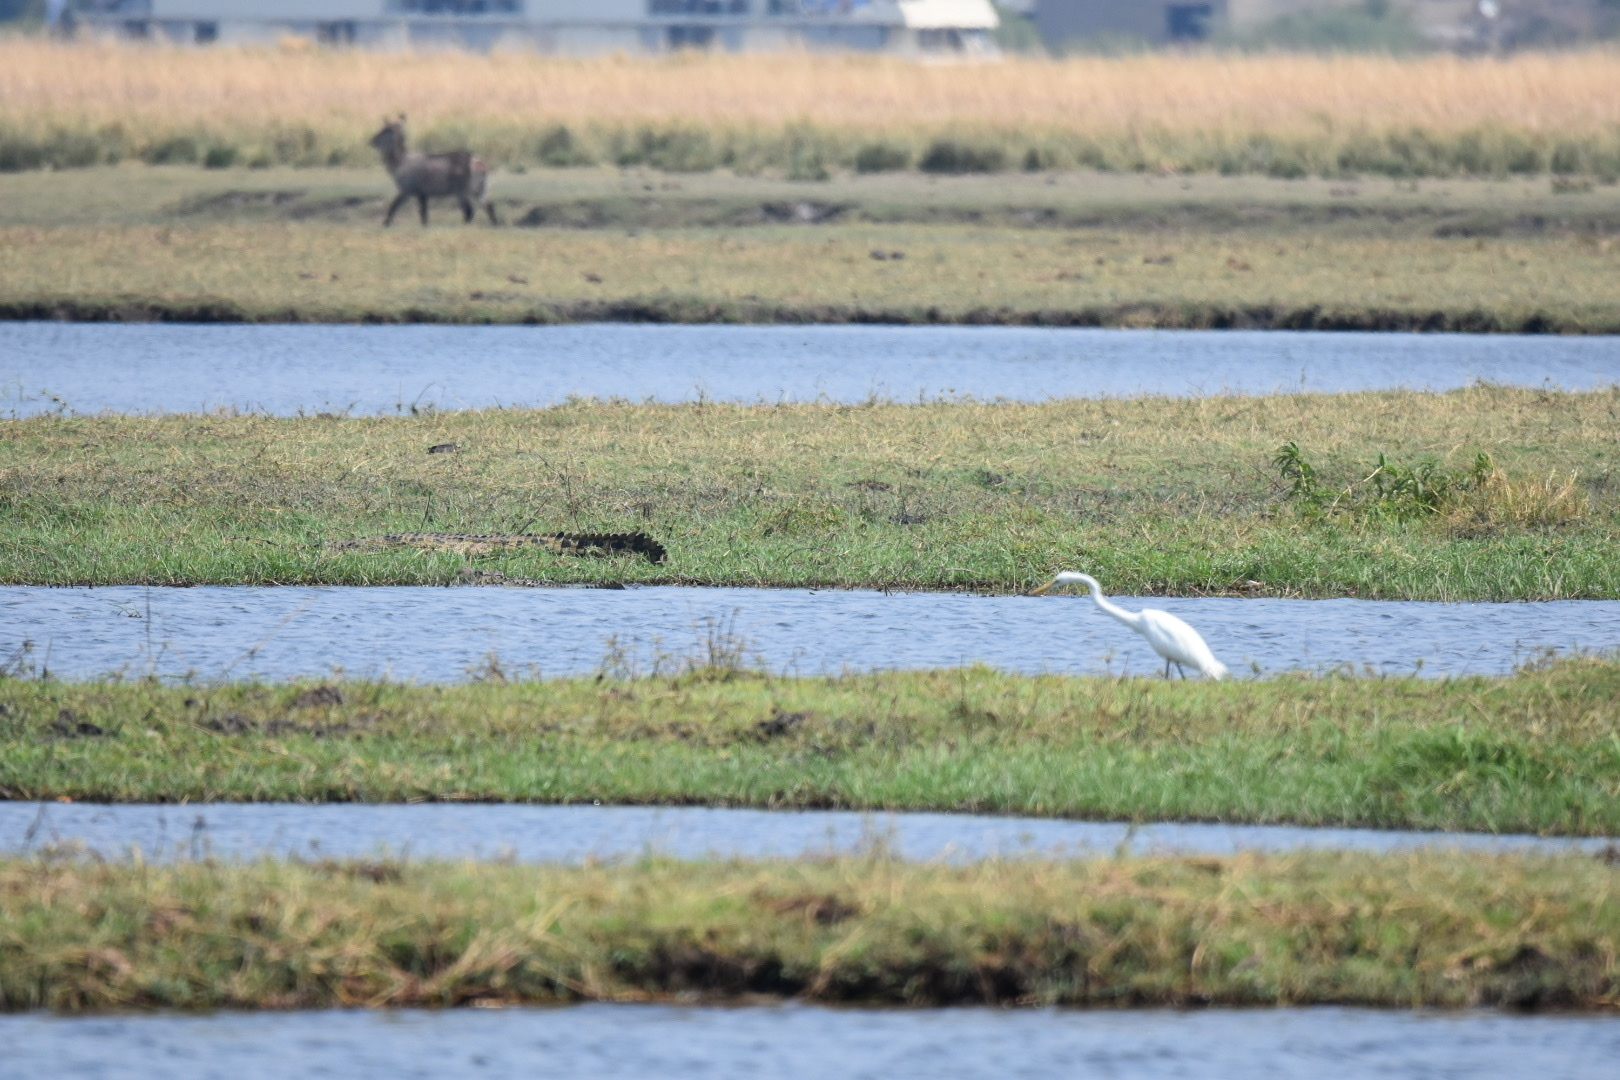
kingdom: Animalia
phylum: Chordata
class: Aves
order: Pelecaniformes
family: Ardeidae
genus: Ardea
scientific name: Ardea alba
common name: Great egret
